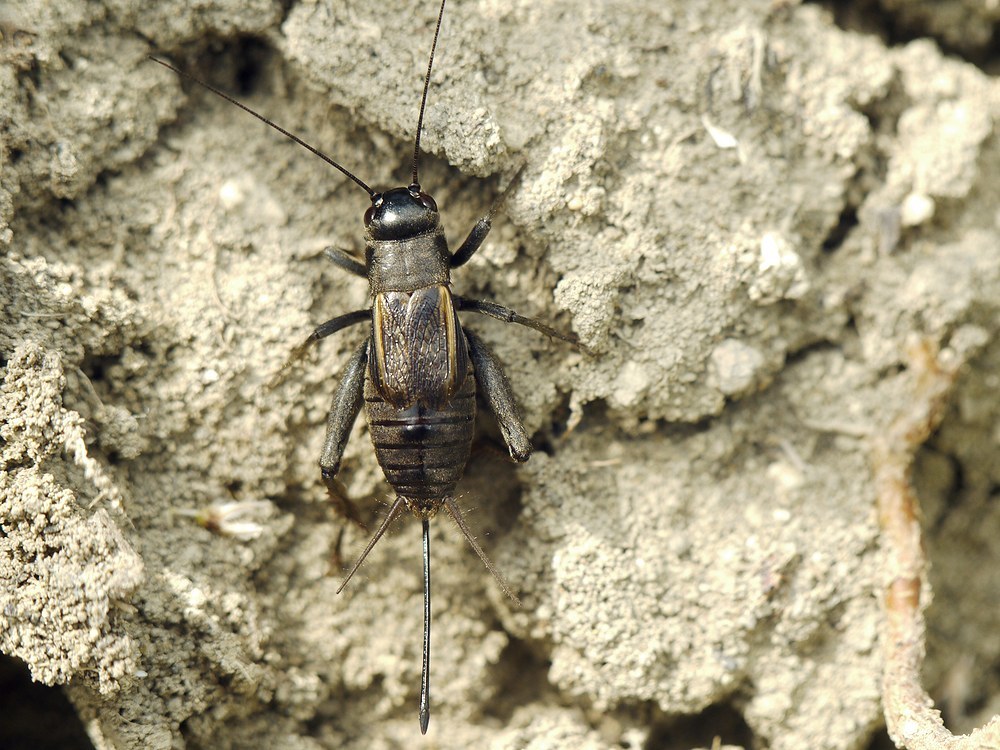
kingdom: Animalia
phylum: Arthropoda
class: Insecta
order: Orthoptera
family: Gryllidae
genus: Melanogryllus
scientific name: Melanogryllus desertus
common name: Desert cricket
